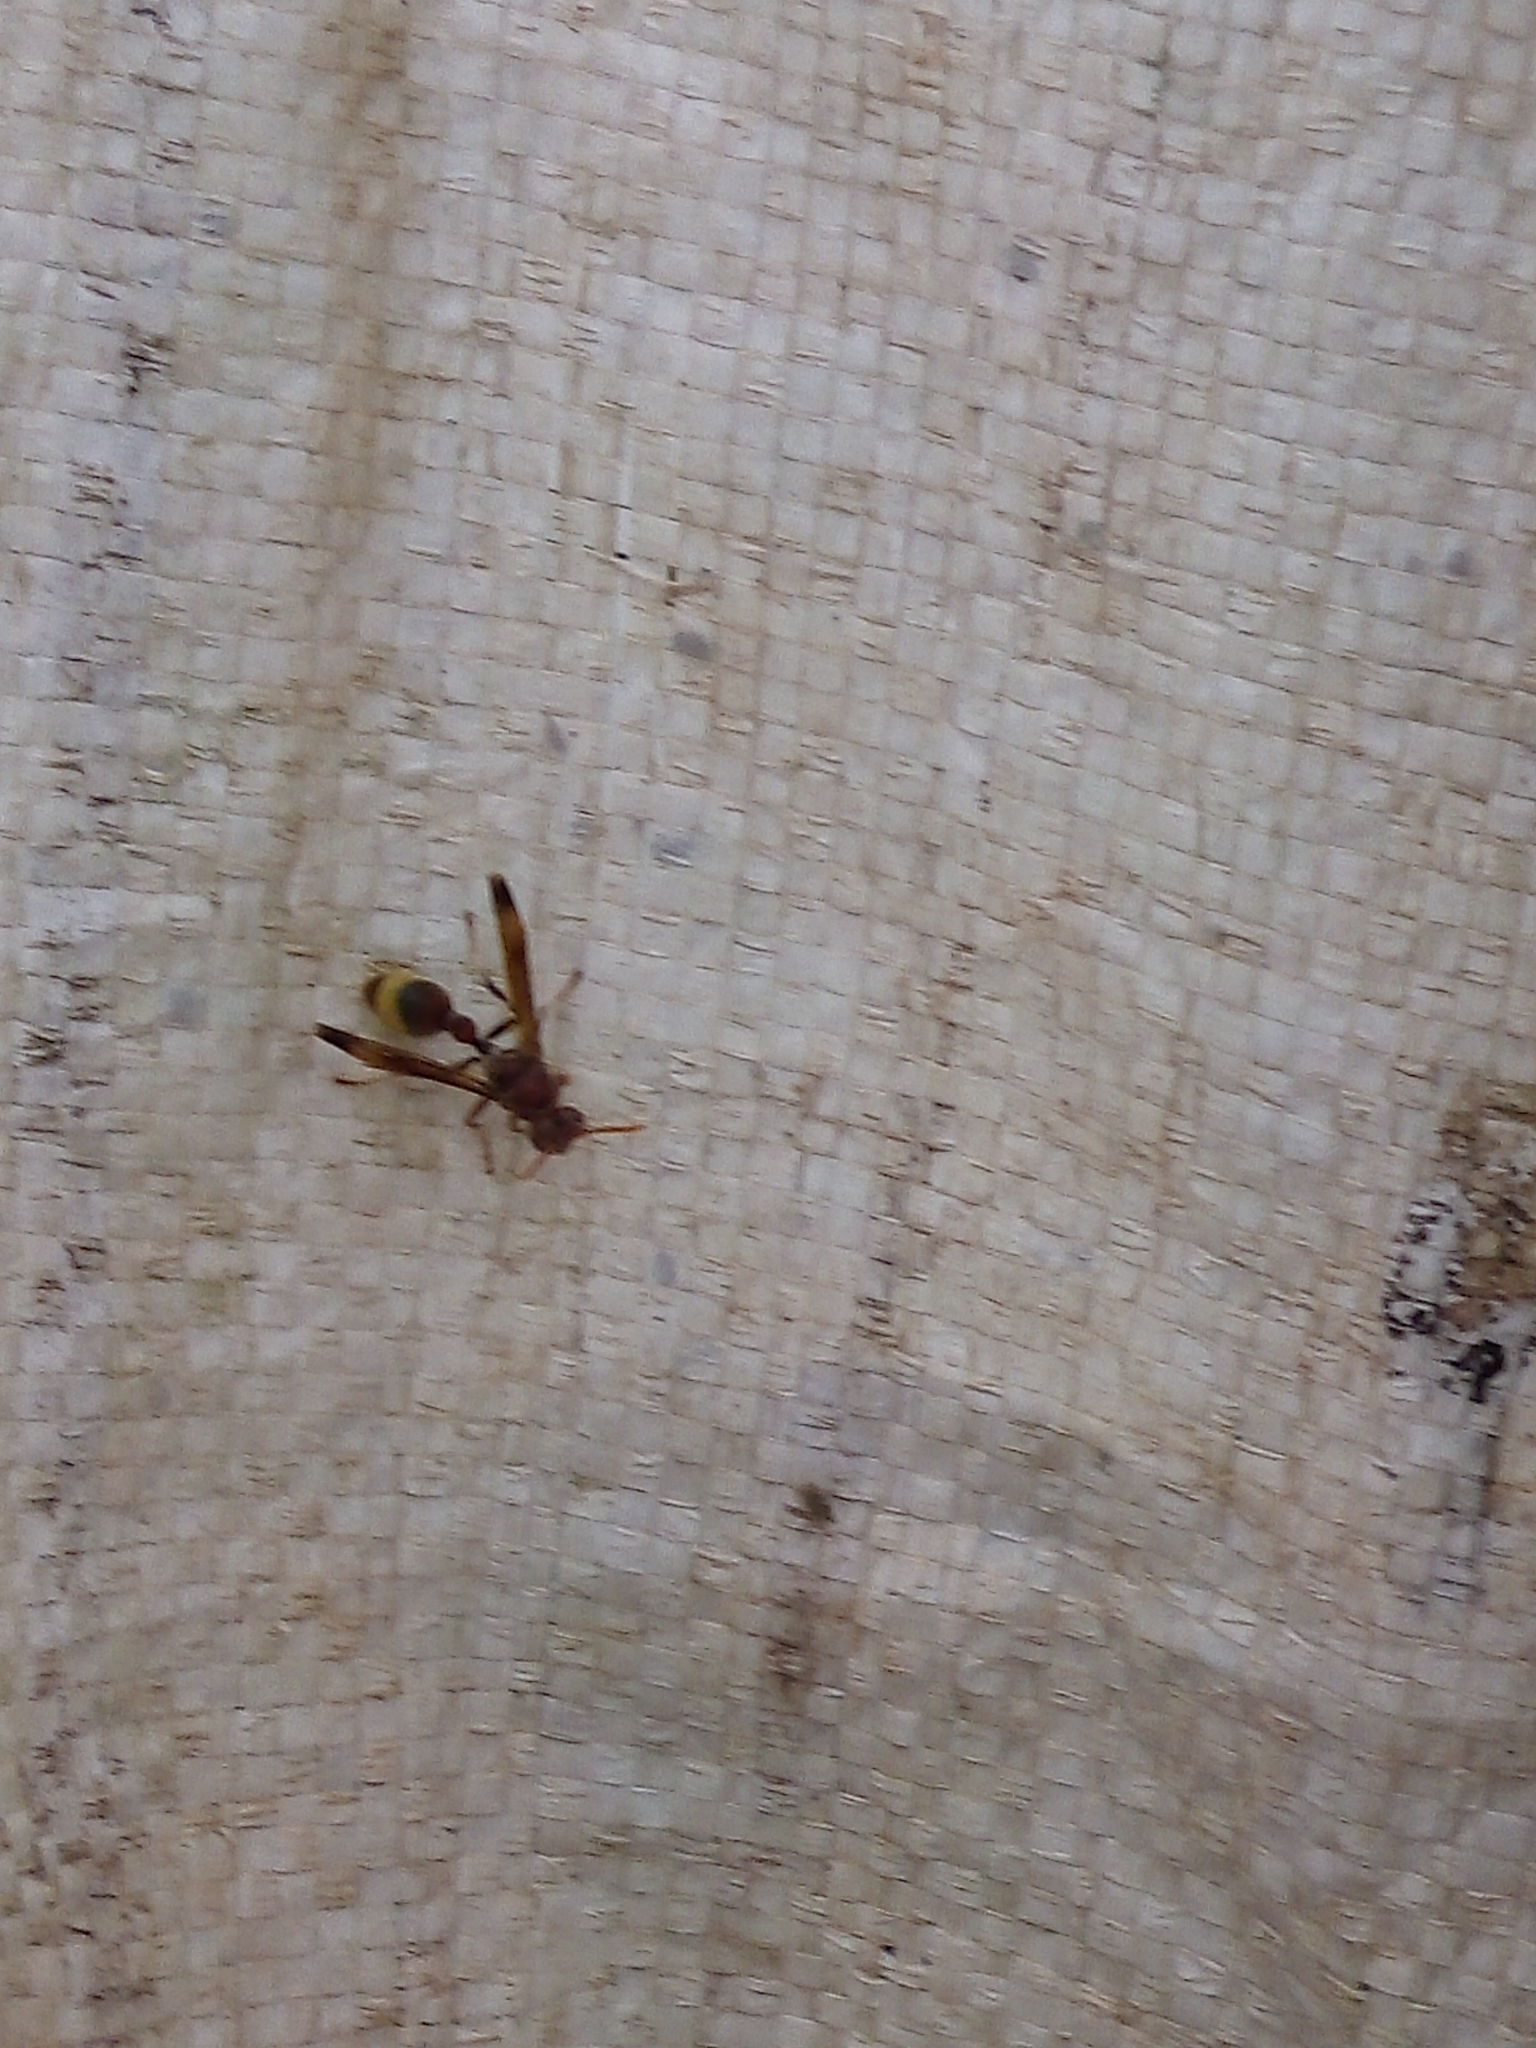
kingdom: Animalia
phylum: Arthropoda
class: Insecta
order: Hymenoptera
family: Vespidae
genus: Ropalidia
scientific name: Ropalidia
